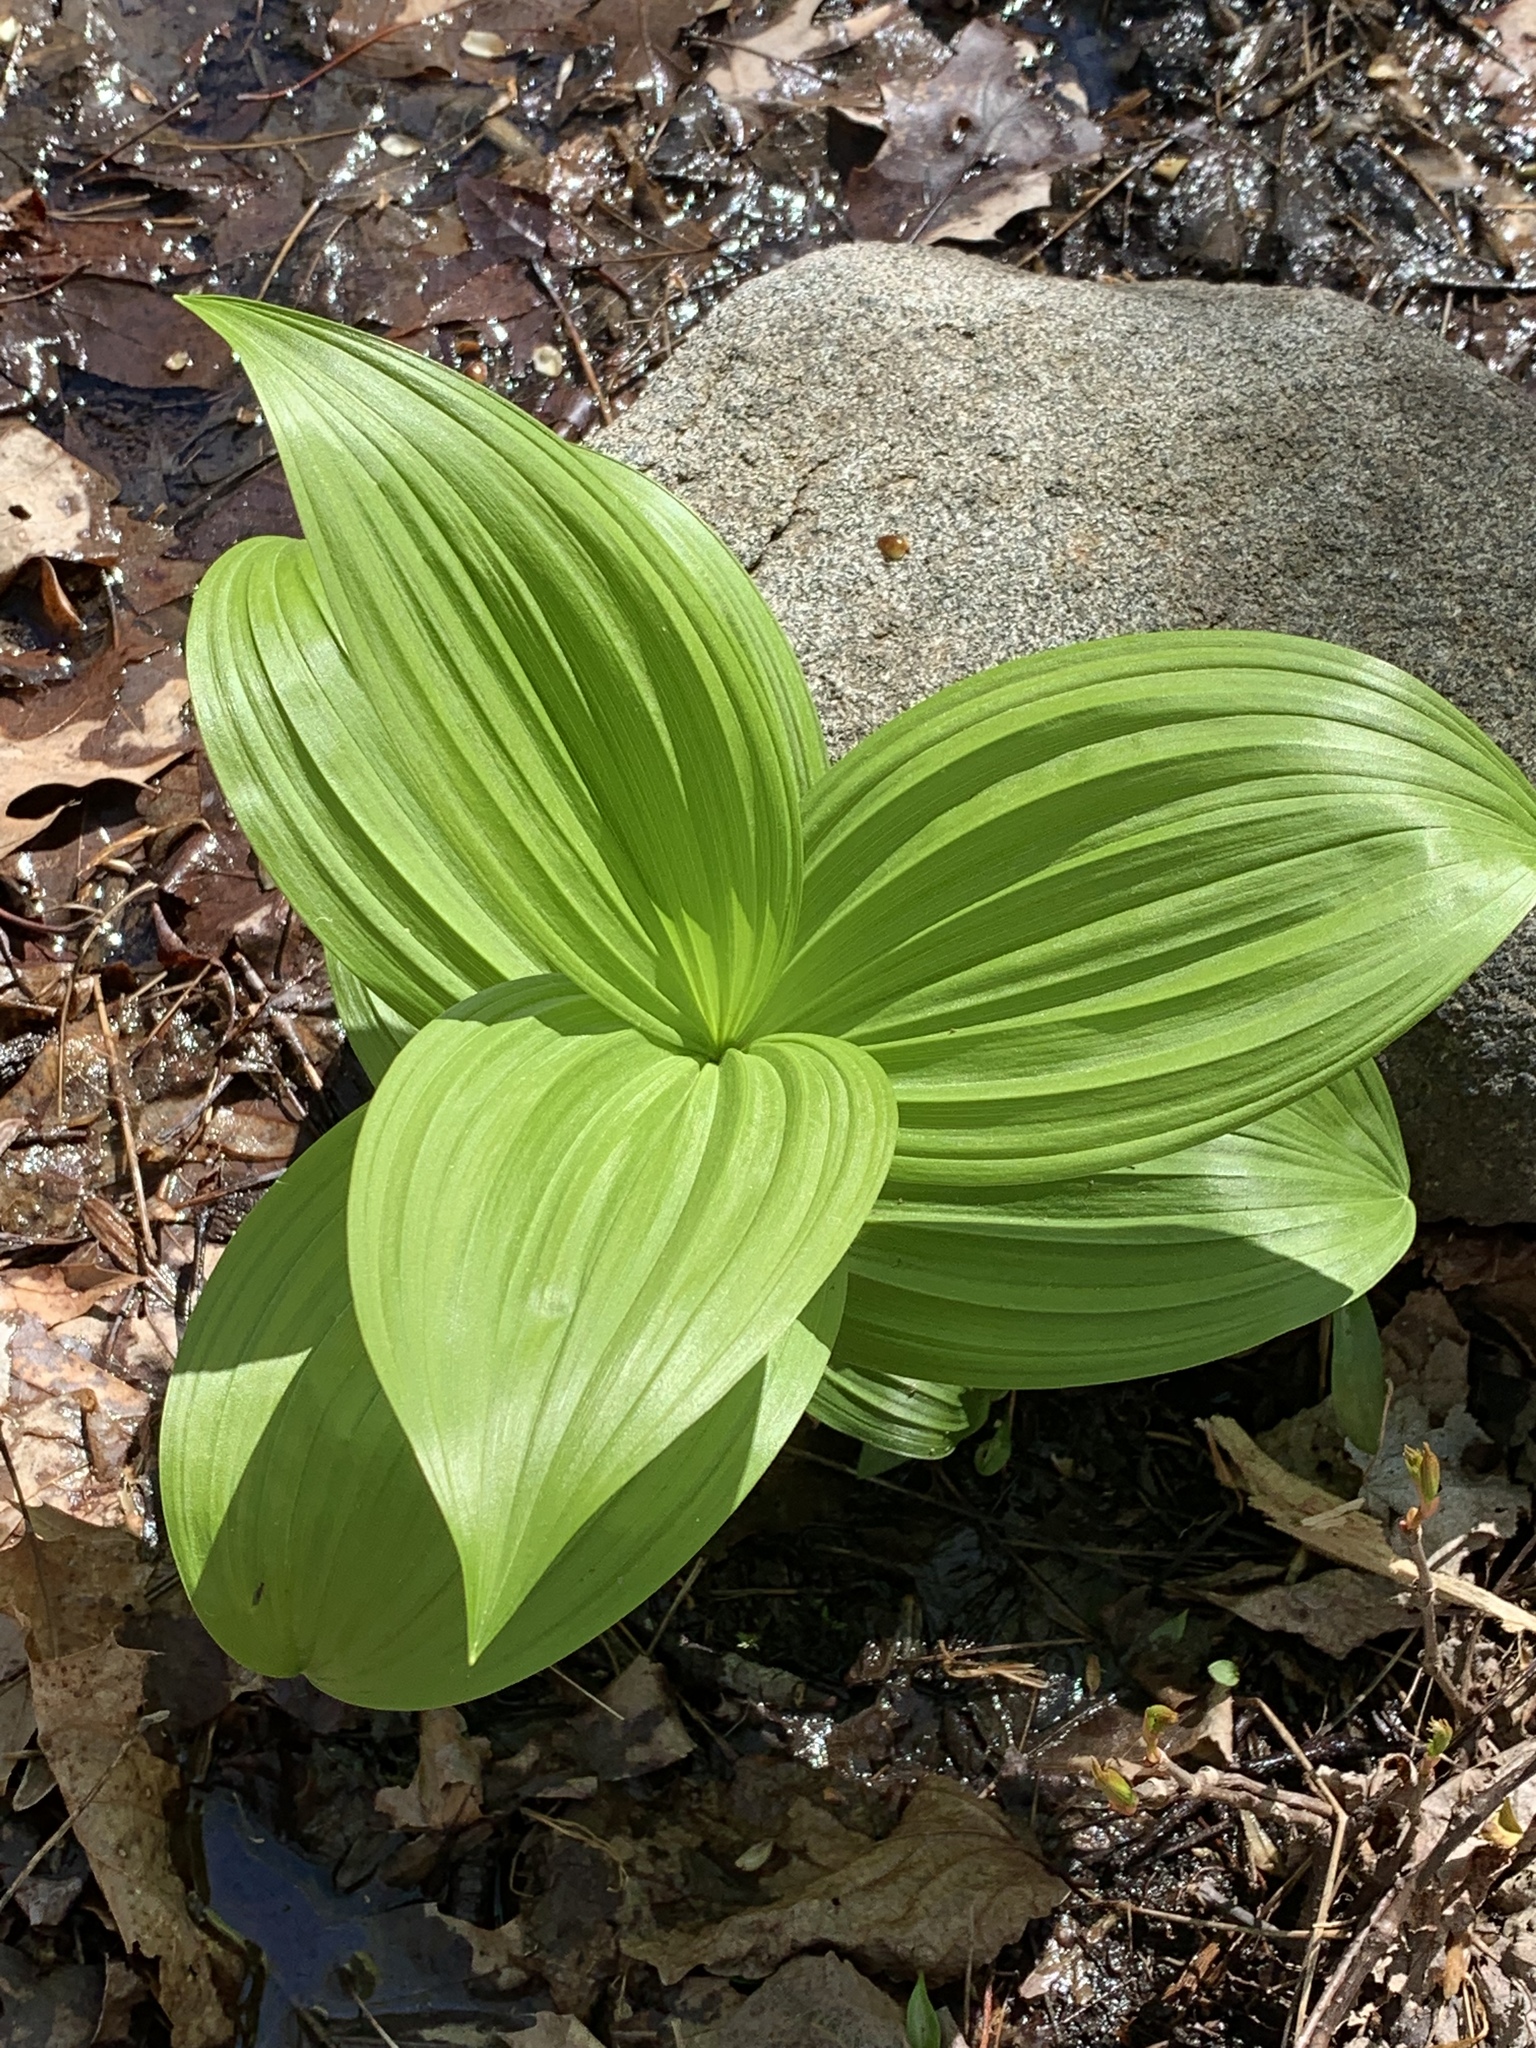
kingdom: Plantae
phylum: Tracheophyta
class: Liliopsida
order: Liliales
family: Melanthiaceae
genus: Veratrum
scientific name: Veratrum viride
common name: American false hellebore
